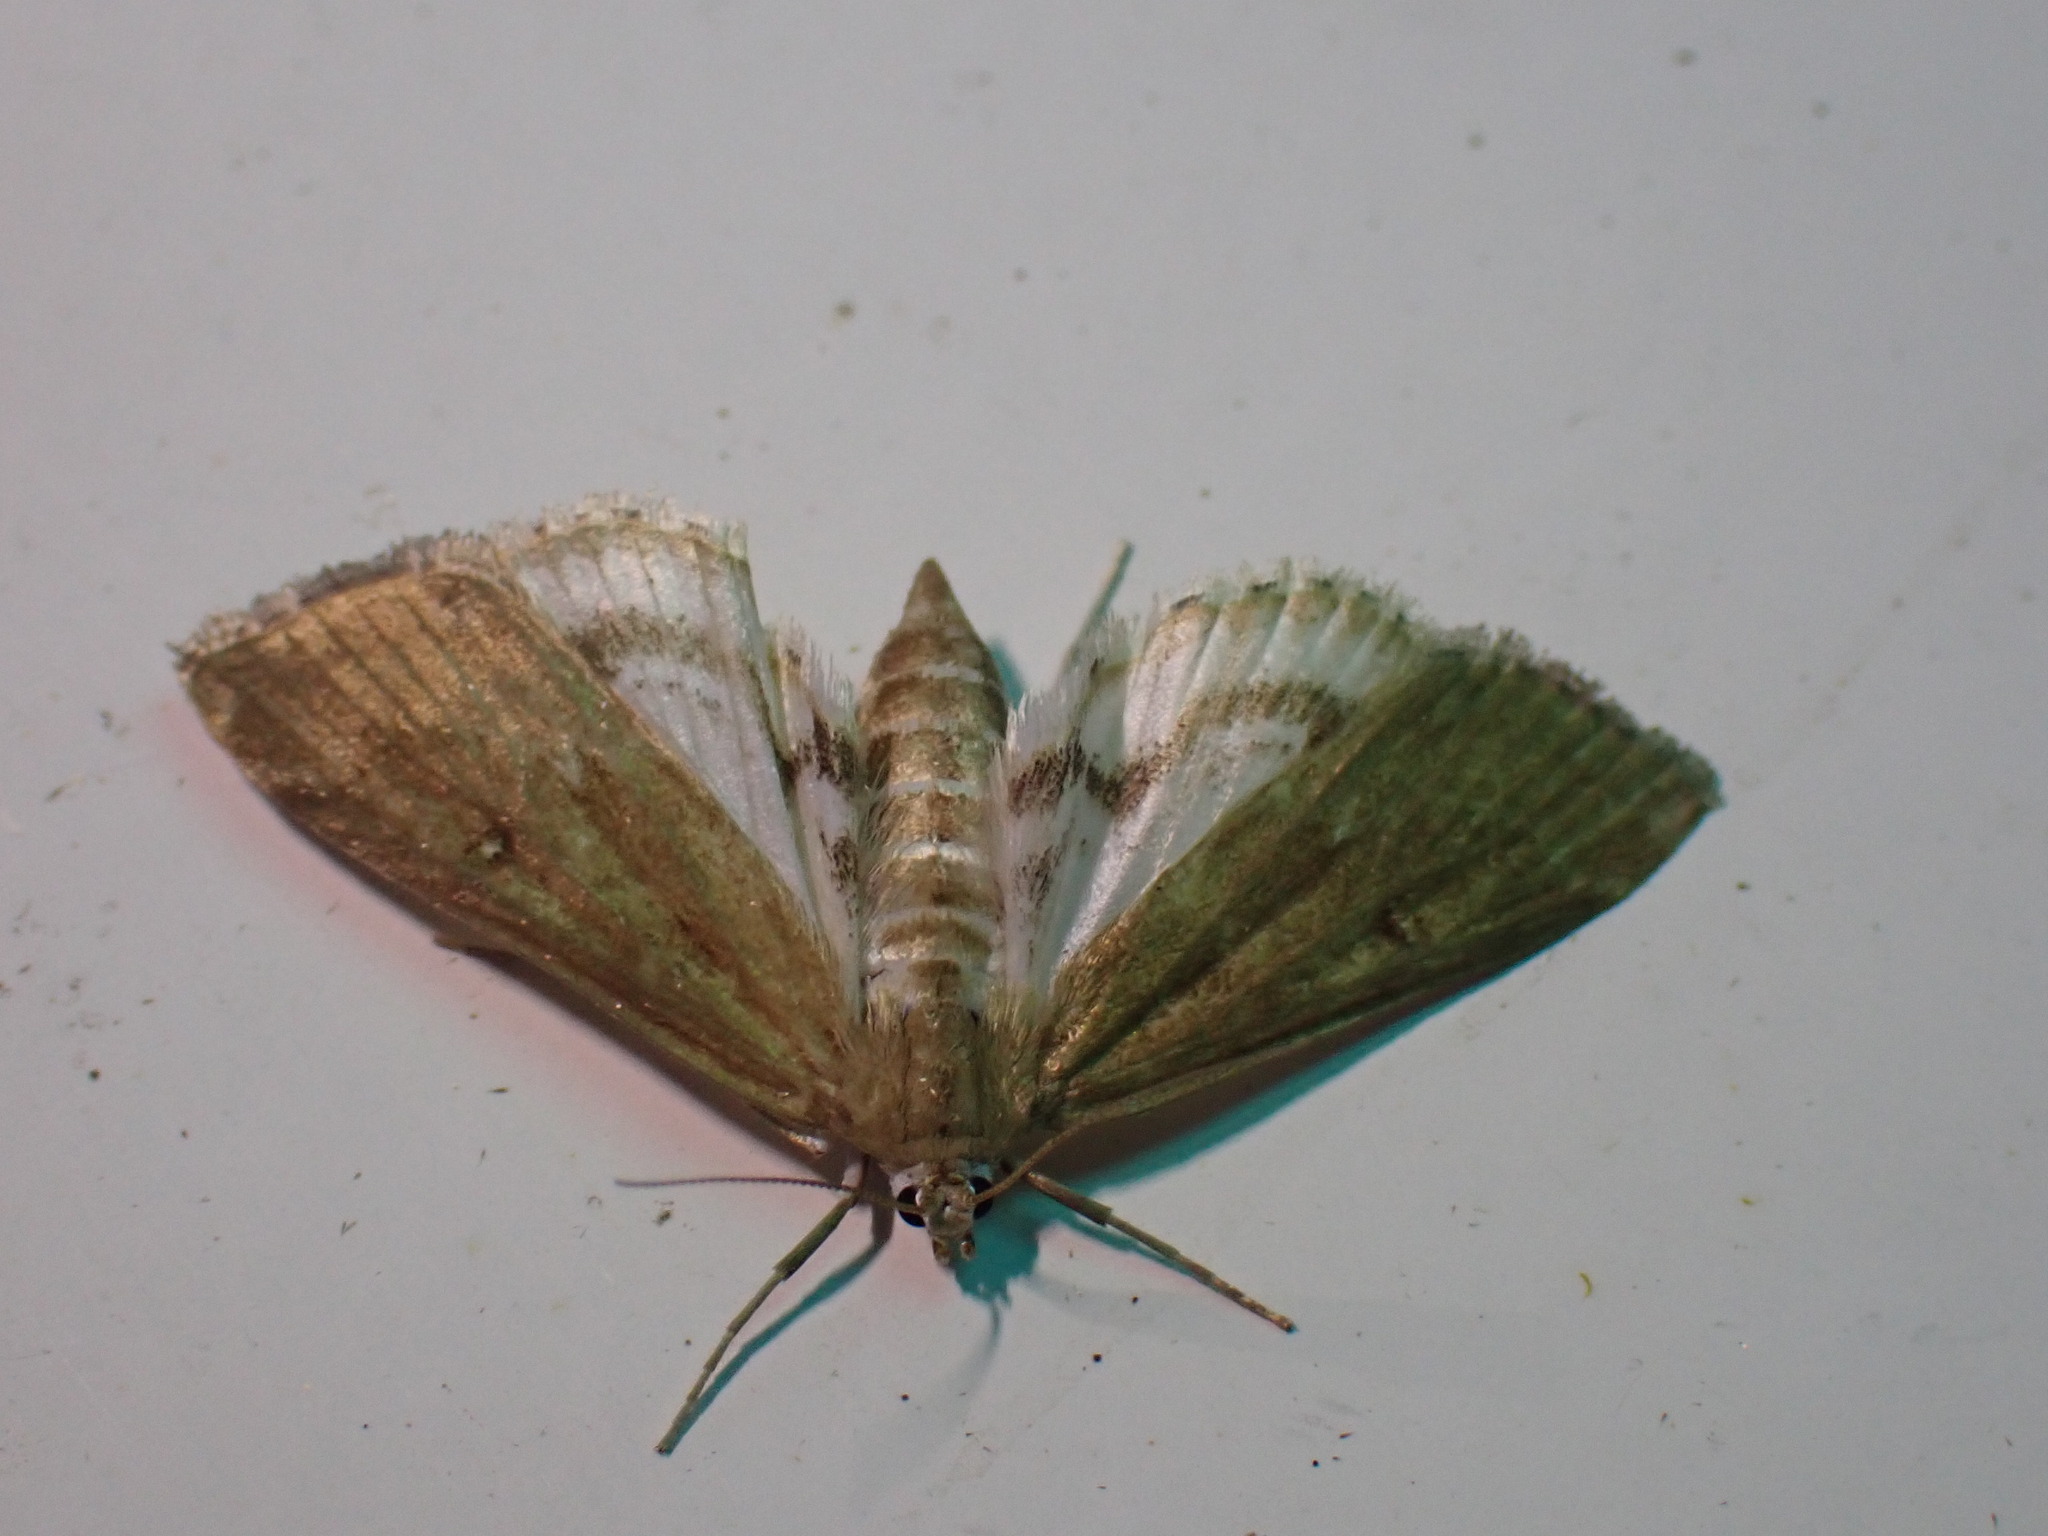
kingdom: Animalia
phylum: Arthropoda
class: Insecta
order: Lepidoptera
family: Crambidae
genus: Parapoynx
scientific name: Parapoynx stratiotata
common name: Ringed china-mark
